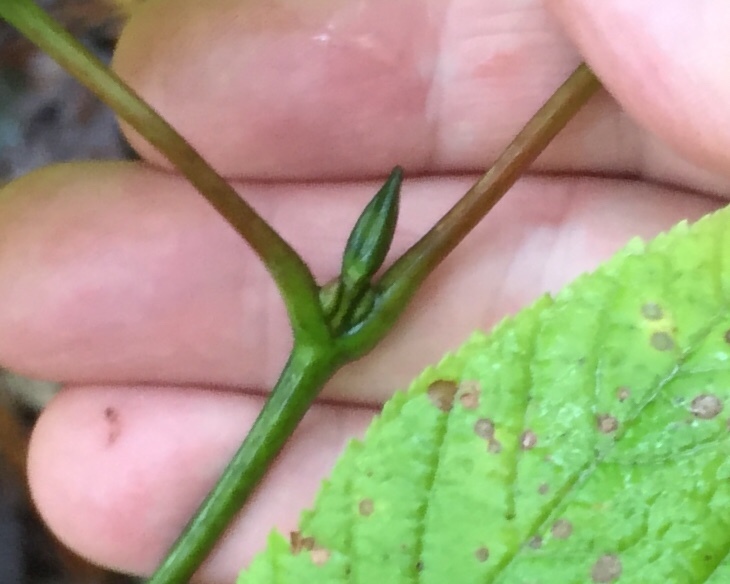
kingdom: Plantae
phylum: Tracheophyta
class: Magnoliopsida
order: Sapindales
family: Sapindaceae
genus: Acer
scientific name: Acer pensylvanicum
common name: Moosewood
